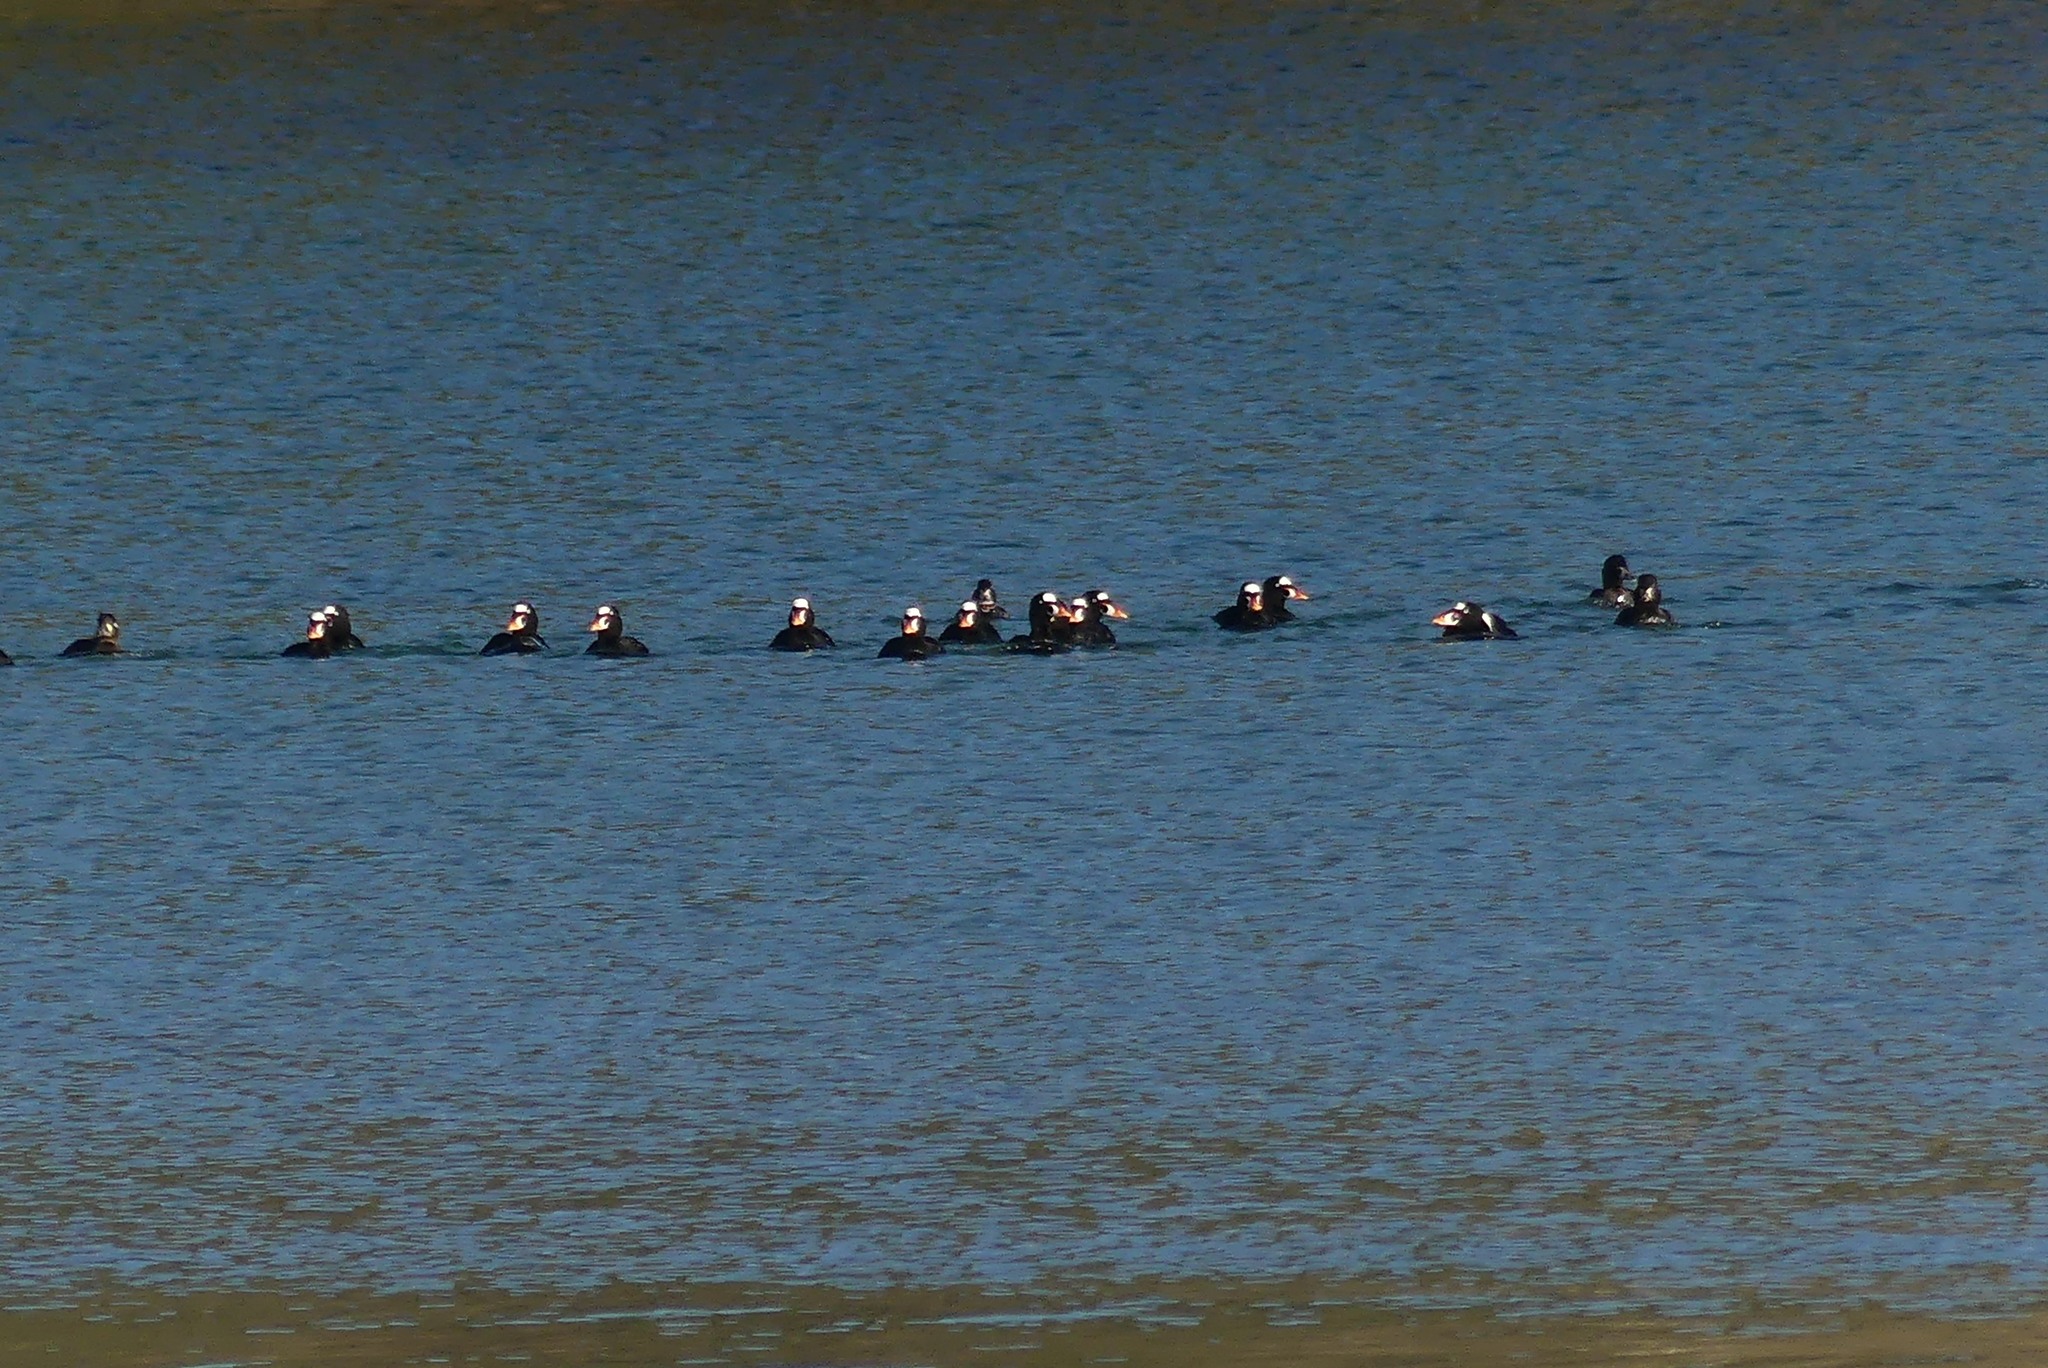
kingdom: Animalia
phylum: Chordata
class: Aves
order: Anseriformes
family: Anatidae
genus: Melanitta
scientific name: Melanitta perspicillata
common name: Surf scoter
